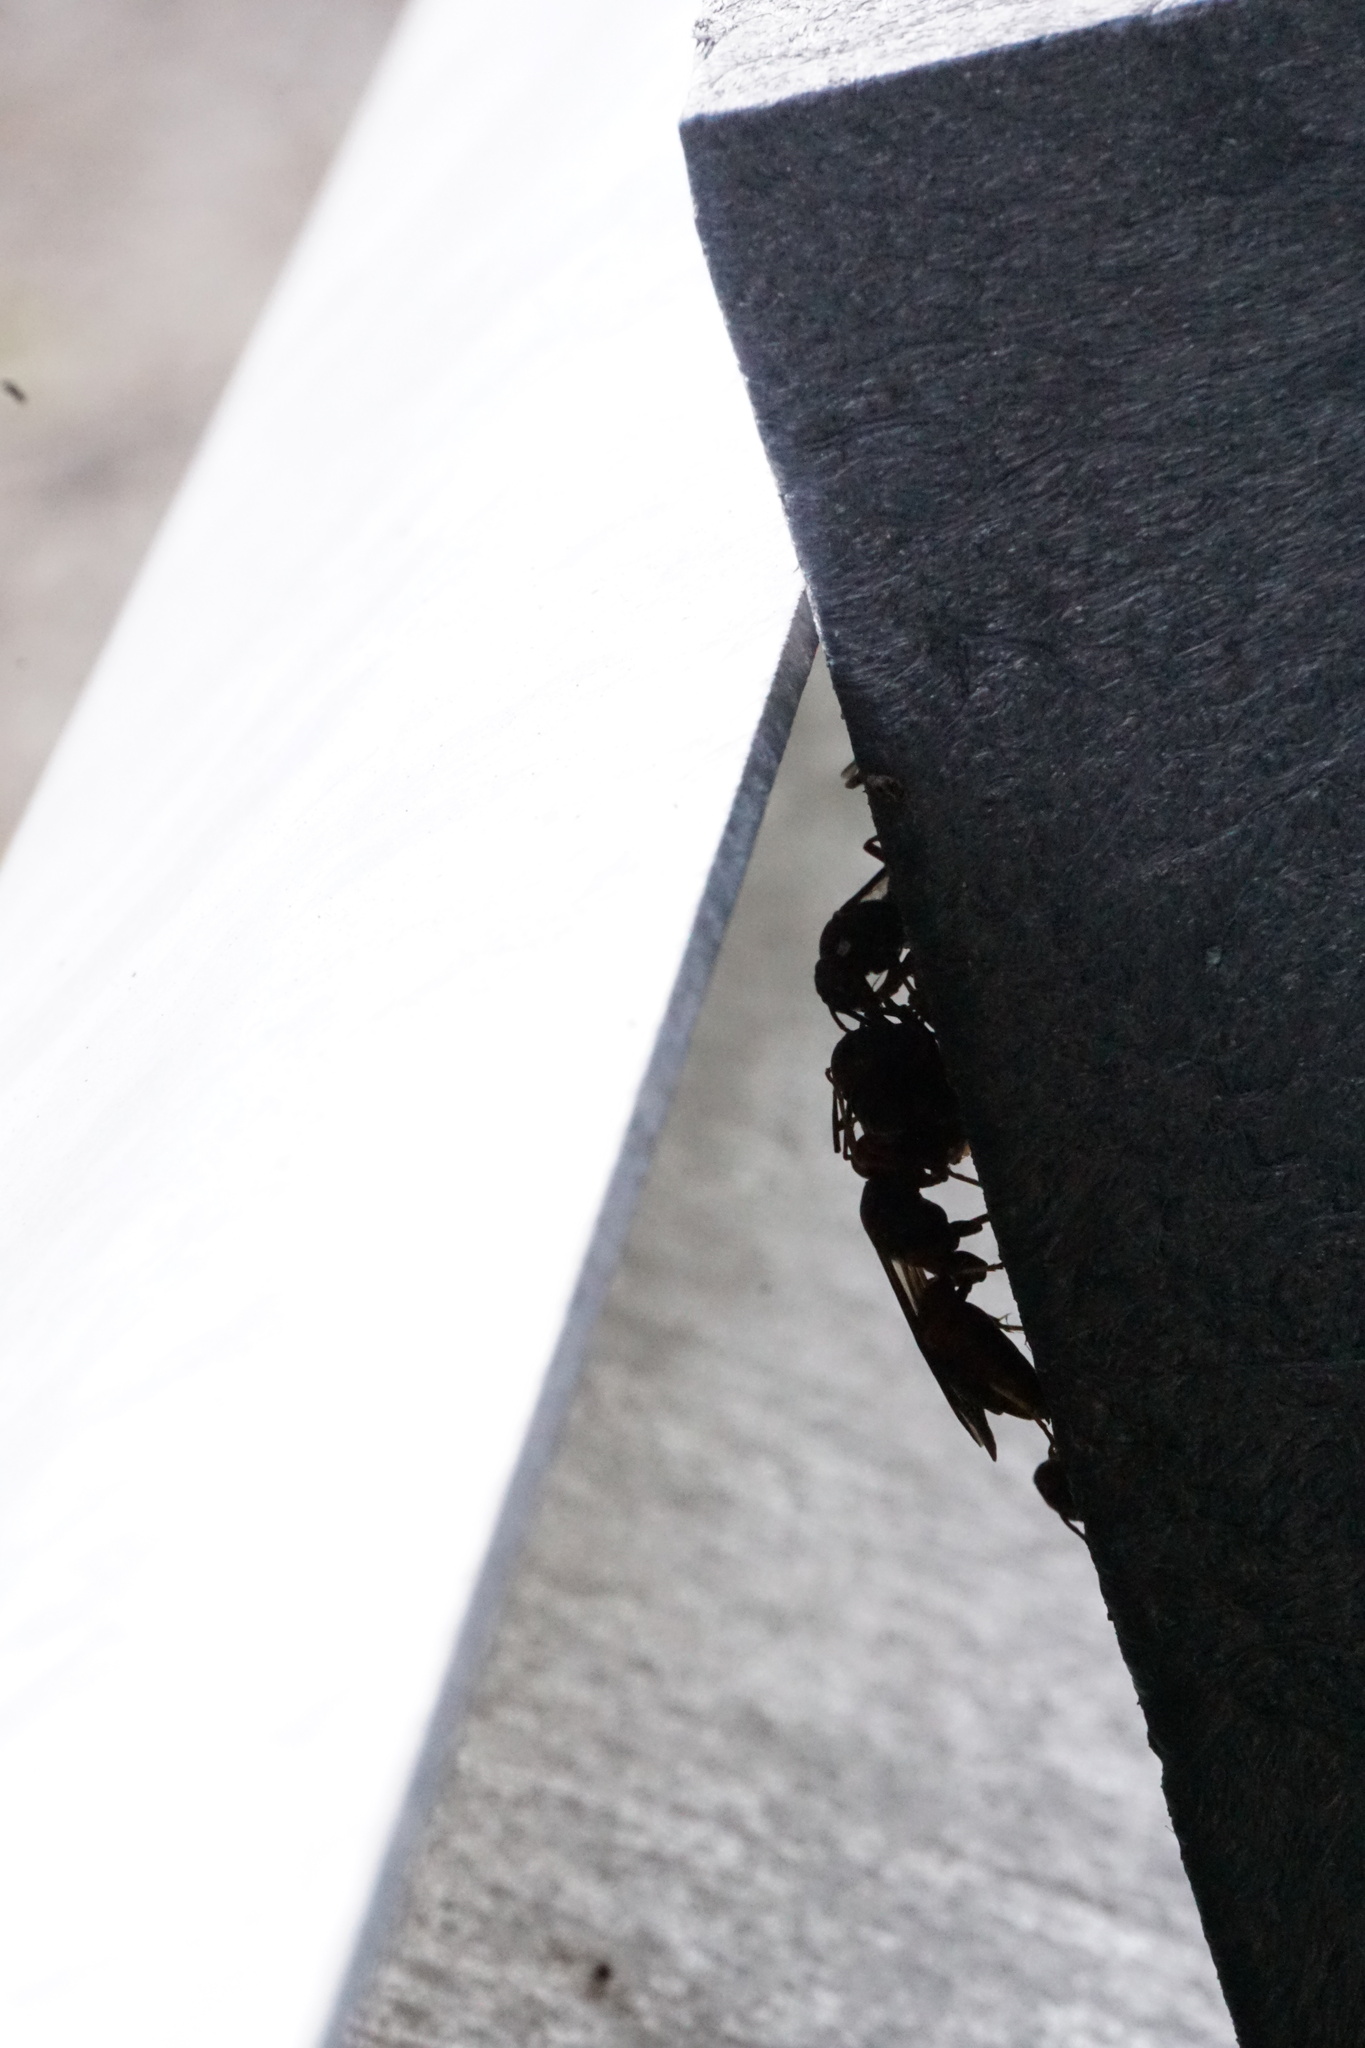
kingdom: Animalia
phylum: Arthropoda
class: Insecta
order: Hymenoptera
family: Eumenidae
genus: Polistes
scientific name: Polistes fuscatus
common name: Dark paper wasp
